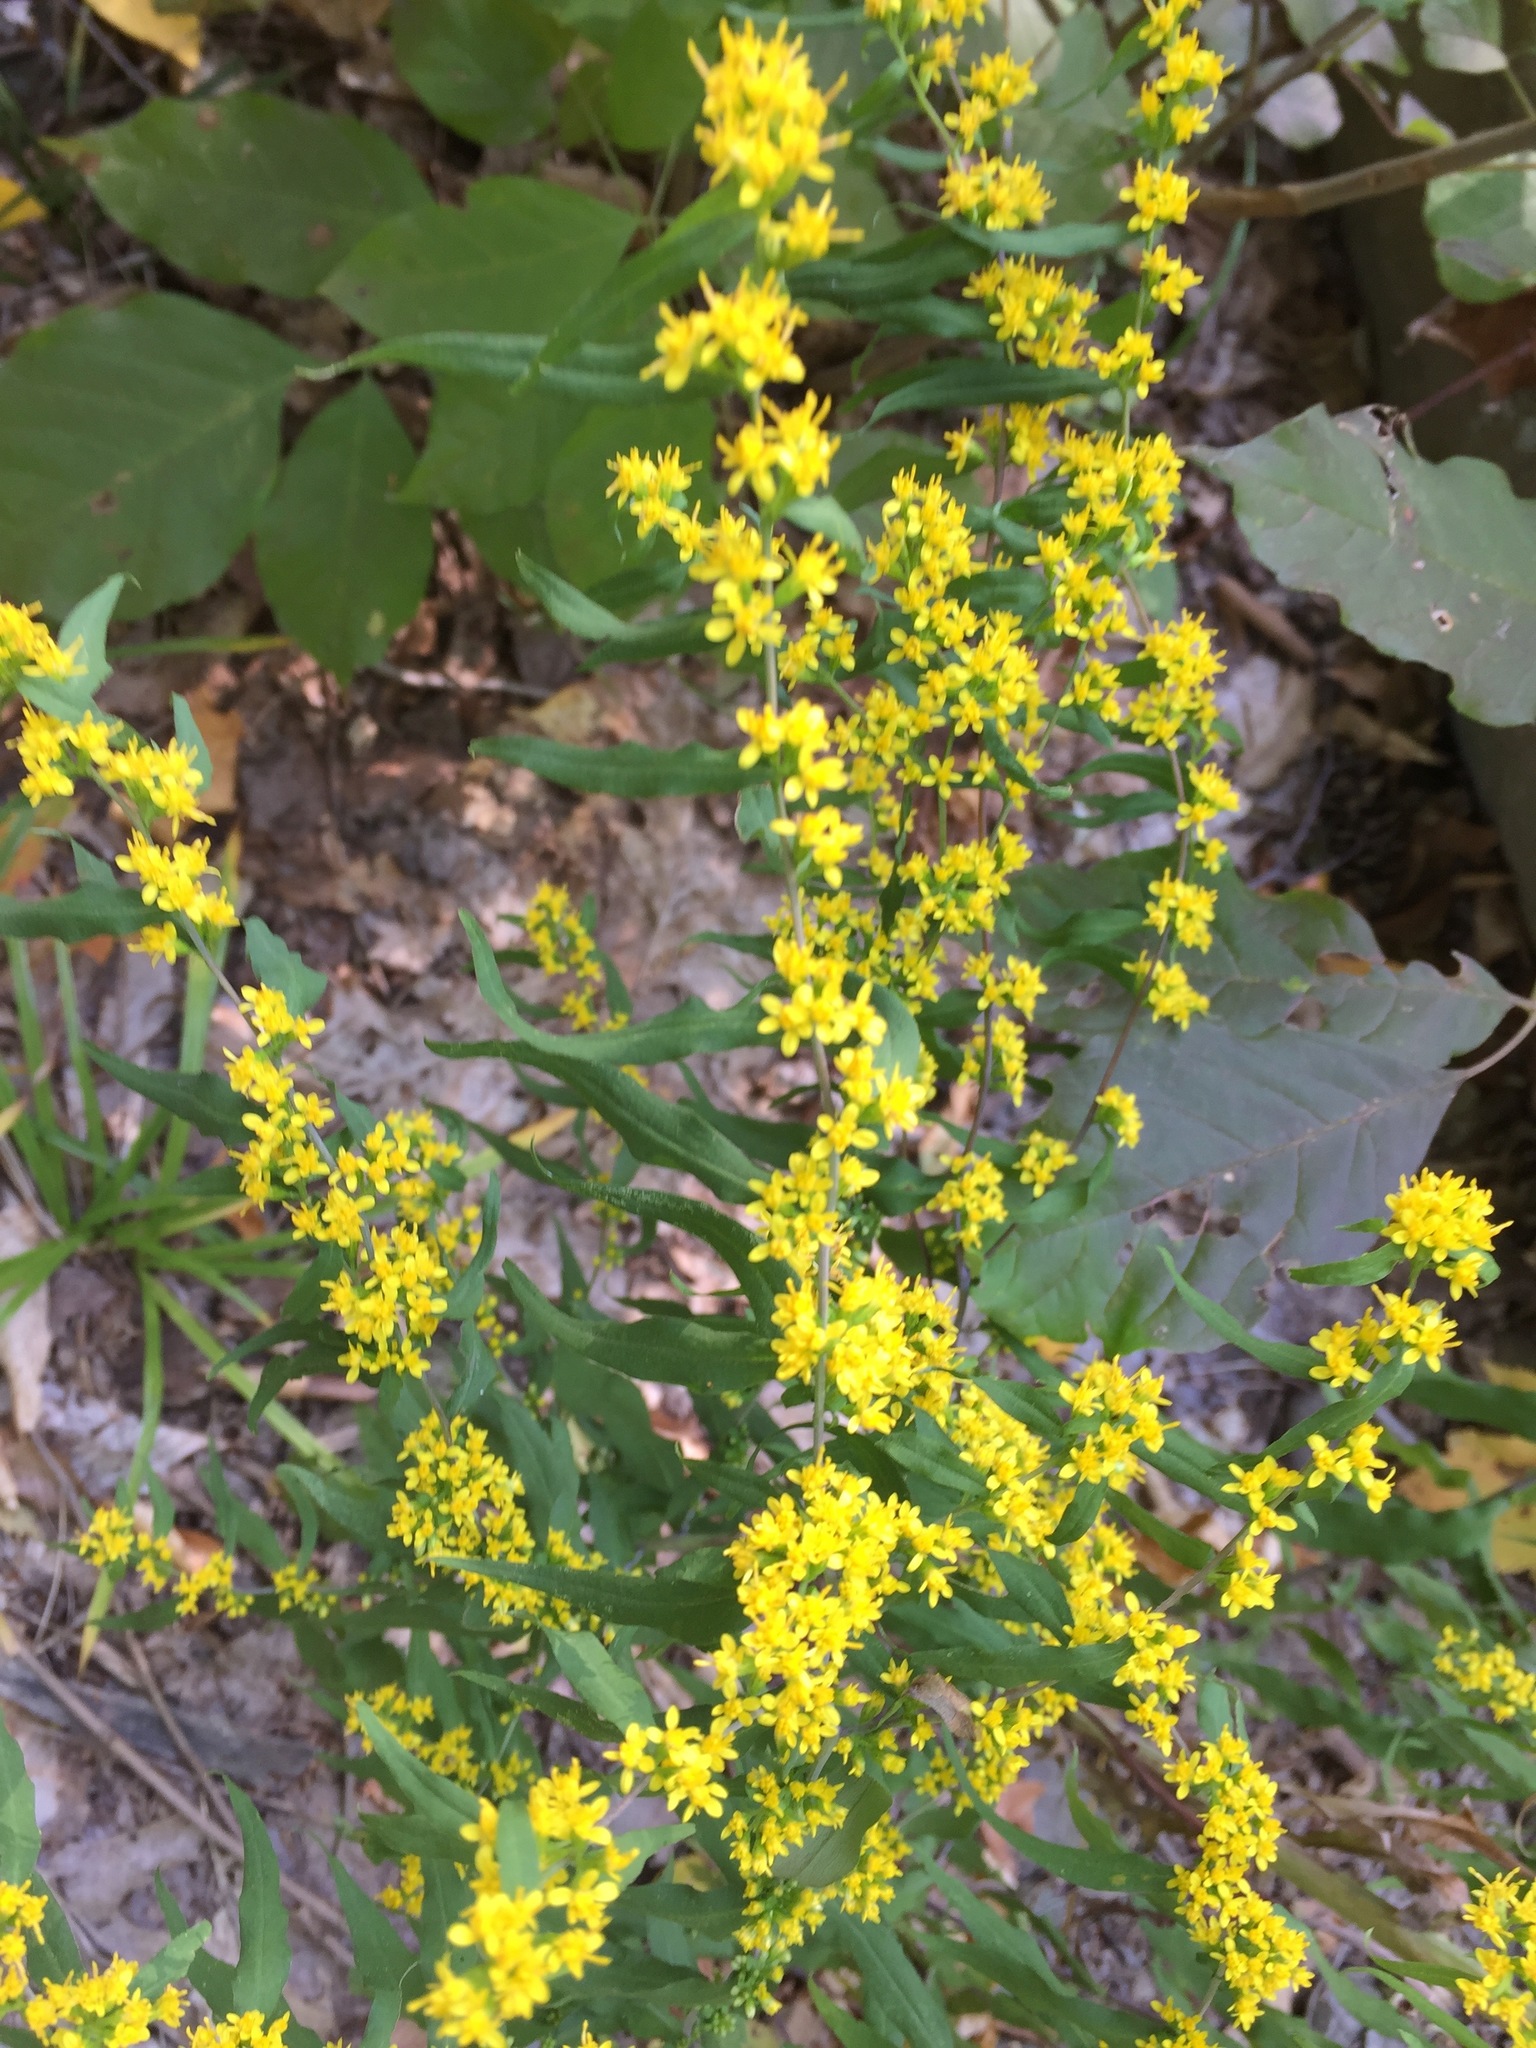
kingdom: Plantae
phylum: Tracheophyta
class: Magnoliopsida
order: Asterales
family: Asteraceae
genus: Solidago
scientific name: Solidago caesia
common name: Woodland goldenrod
